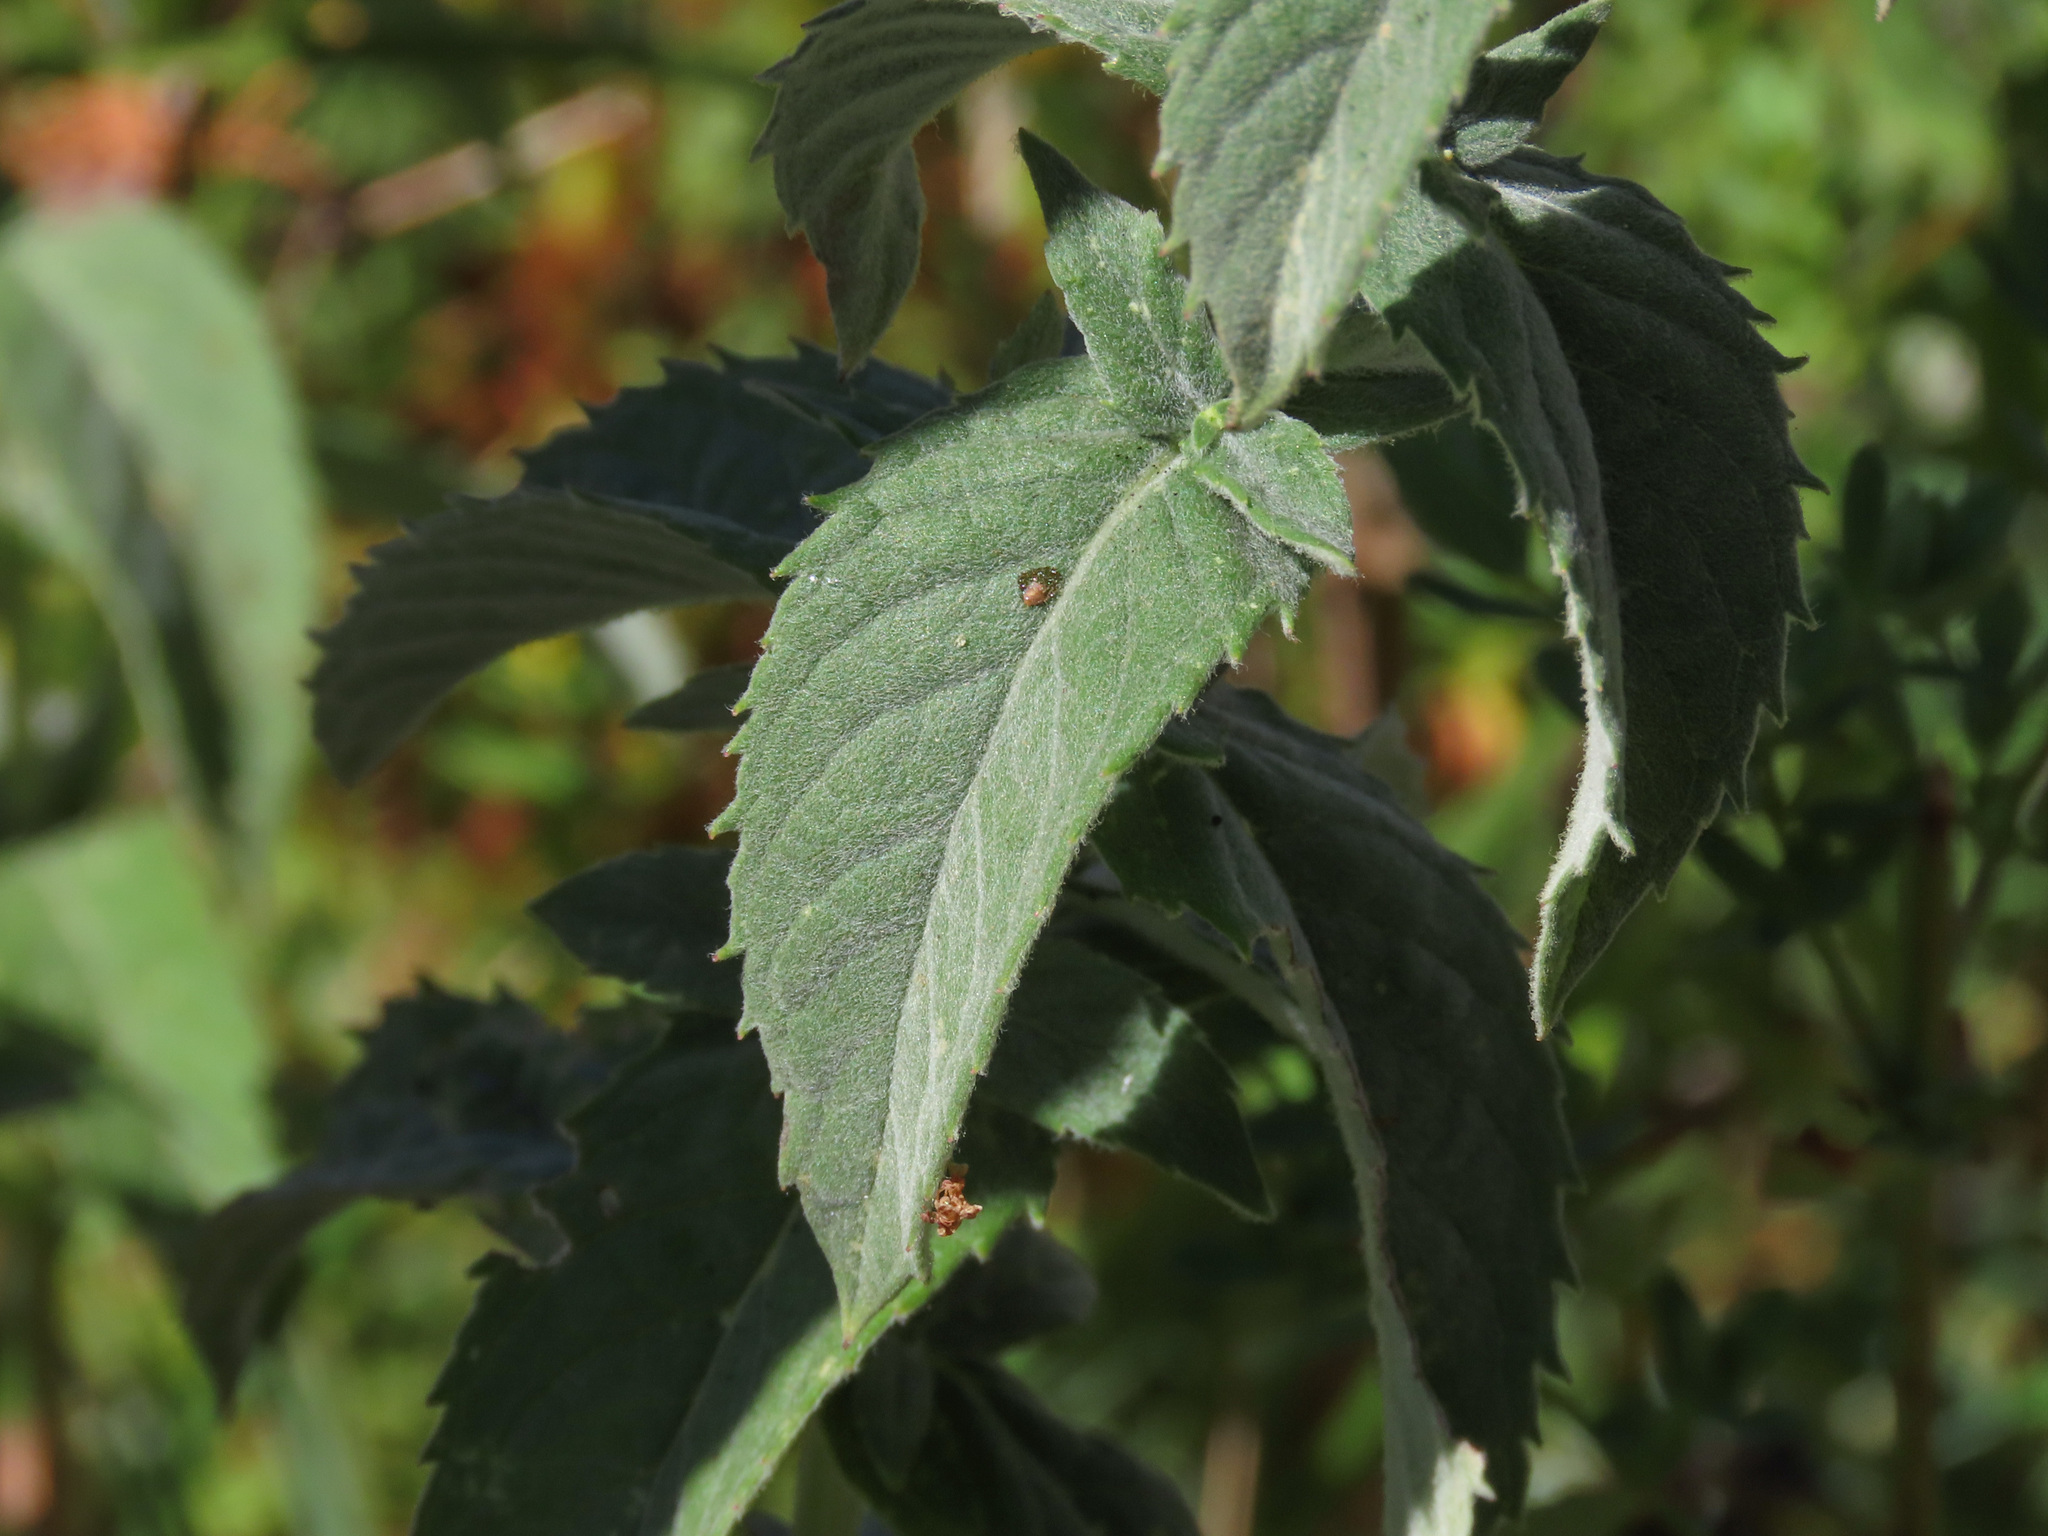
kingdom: Plantae
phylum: Tracheophyta
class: Magnoliopsida
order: Lamiales
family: Lamiaceae
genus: Mentha
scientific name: Mentha longifolia
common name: Horse mint
